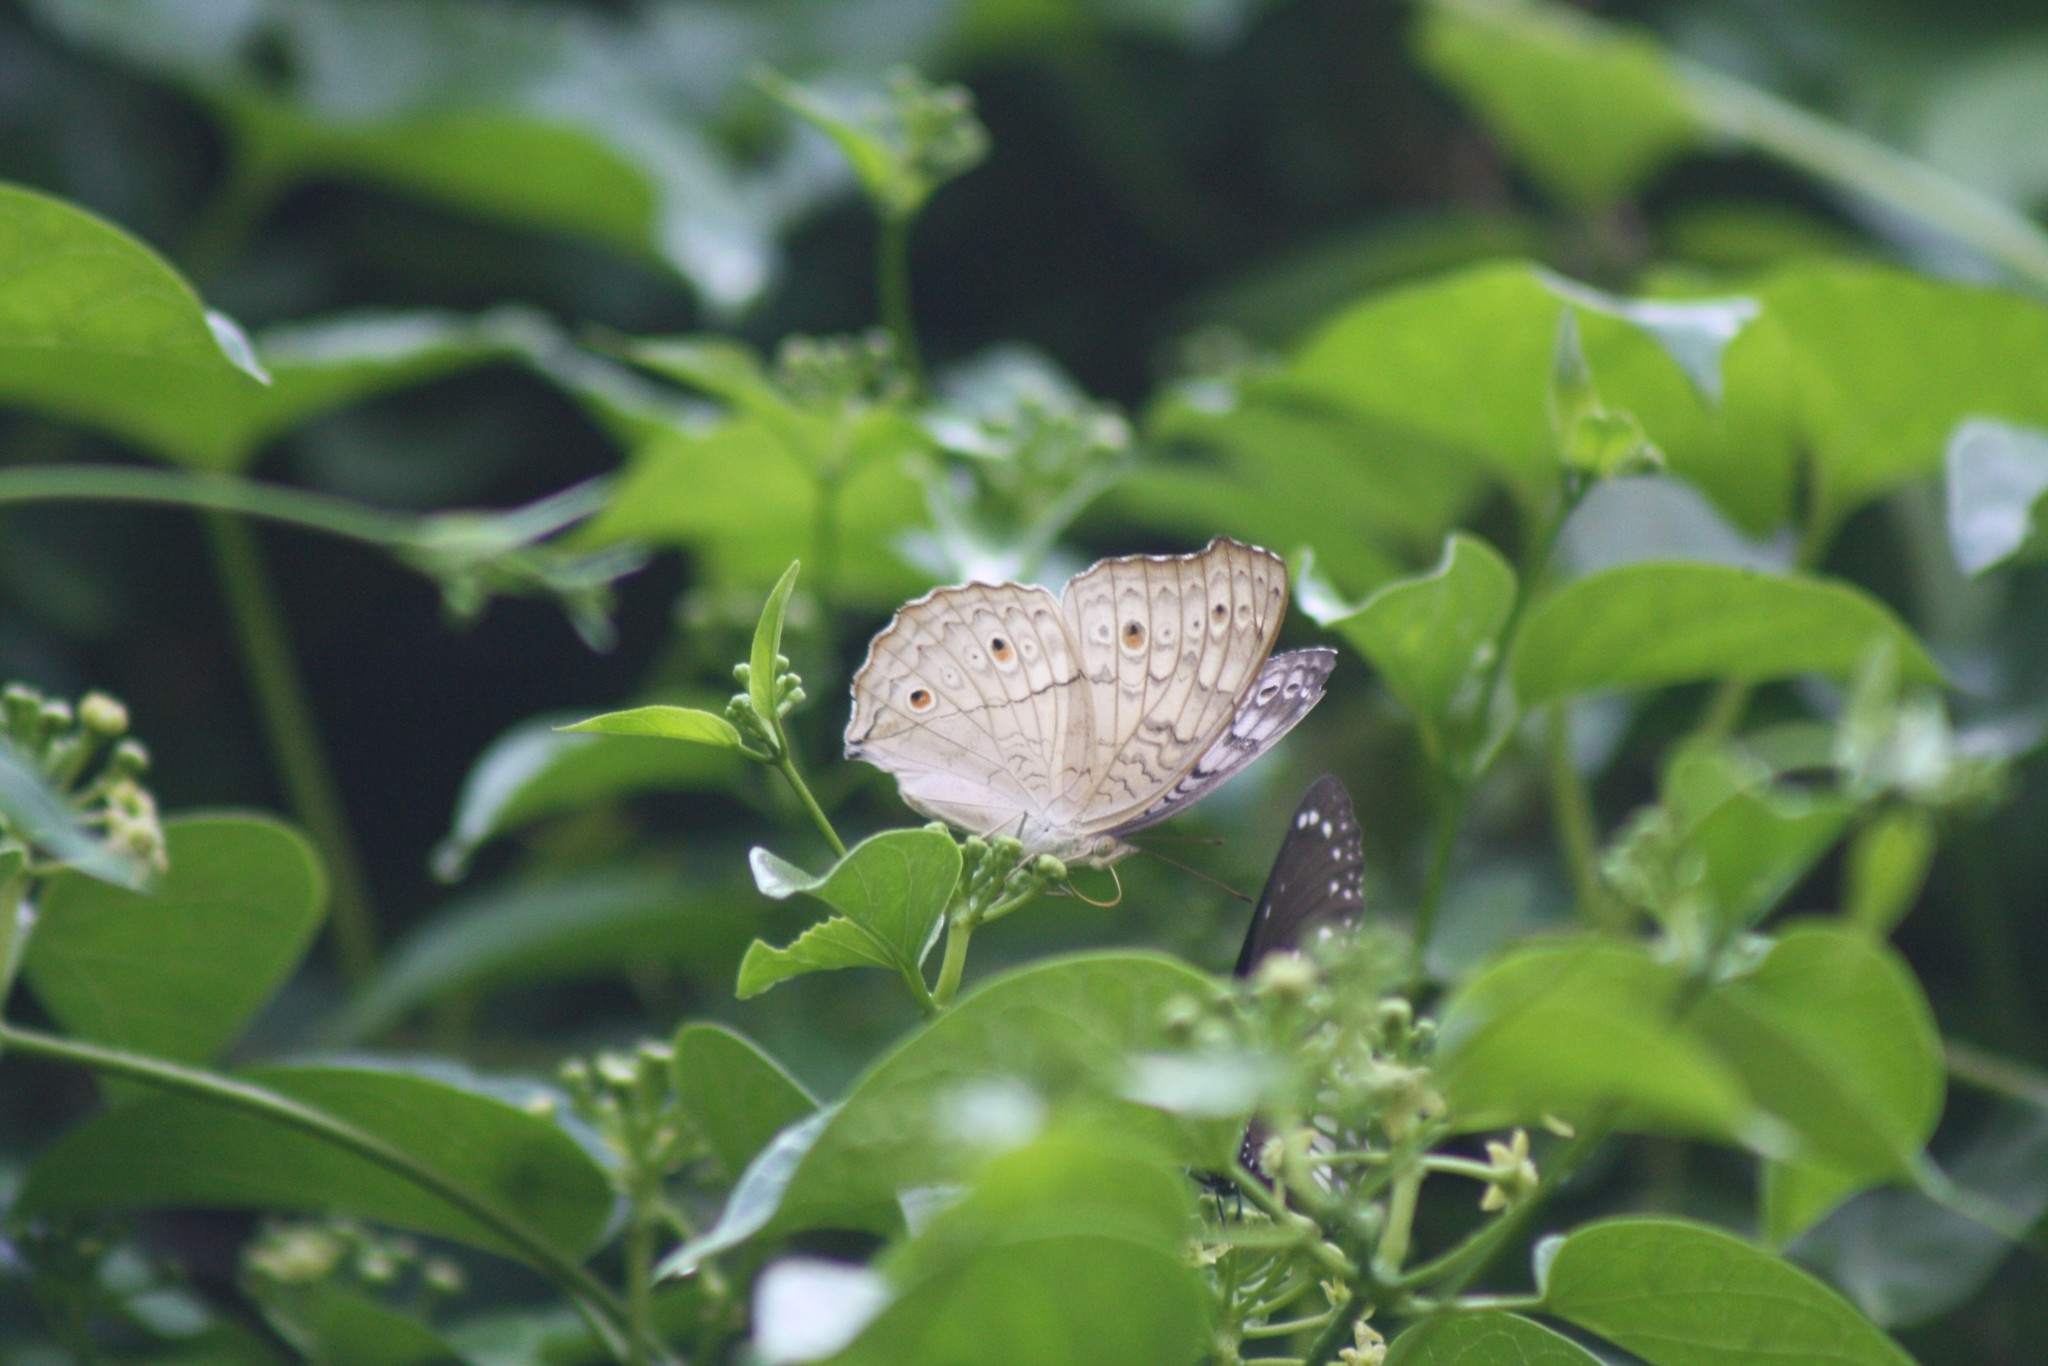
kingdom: Animalia
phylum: Arthropoda
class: Insecta
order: Lepidoptera
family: Nymphalidae
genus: Junonia
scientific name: Junonia atlites
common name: Grey pansy
